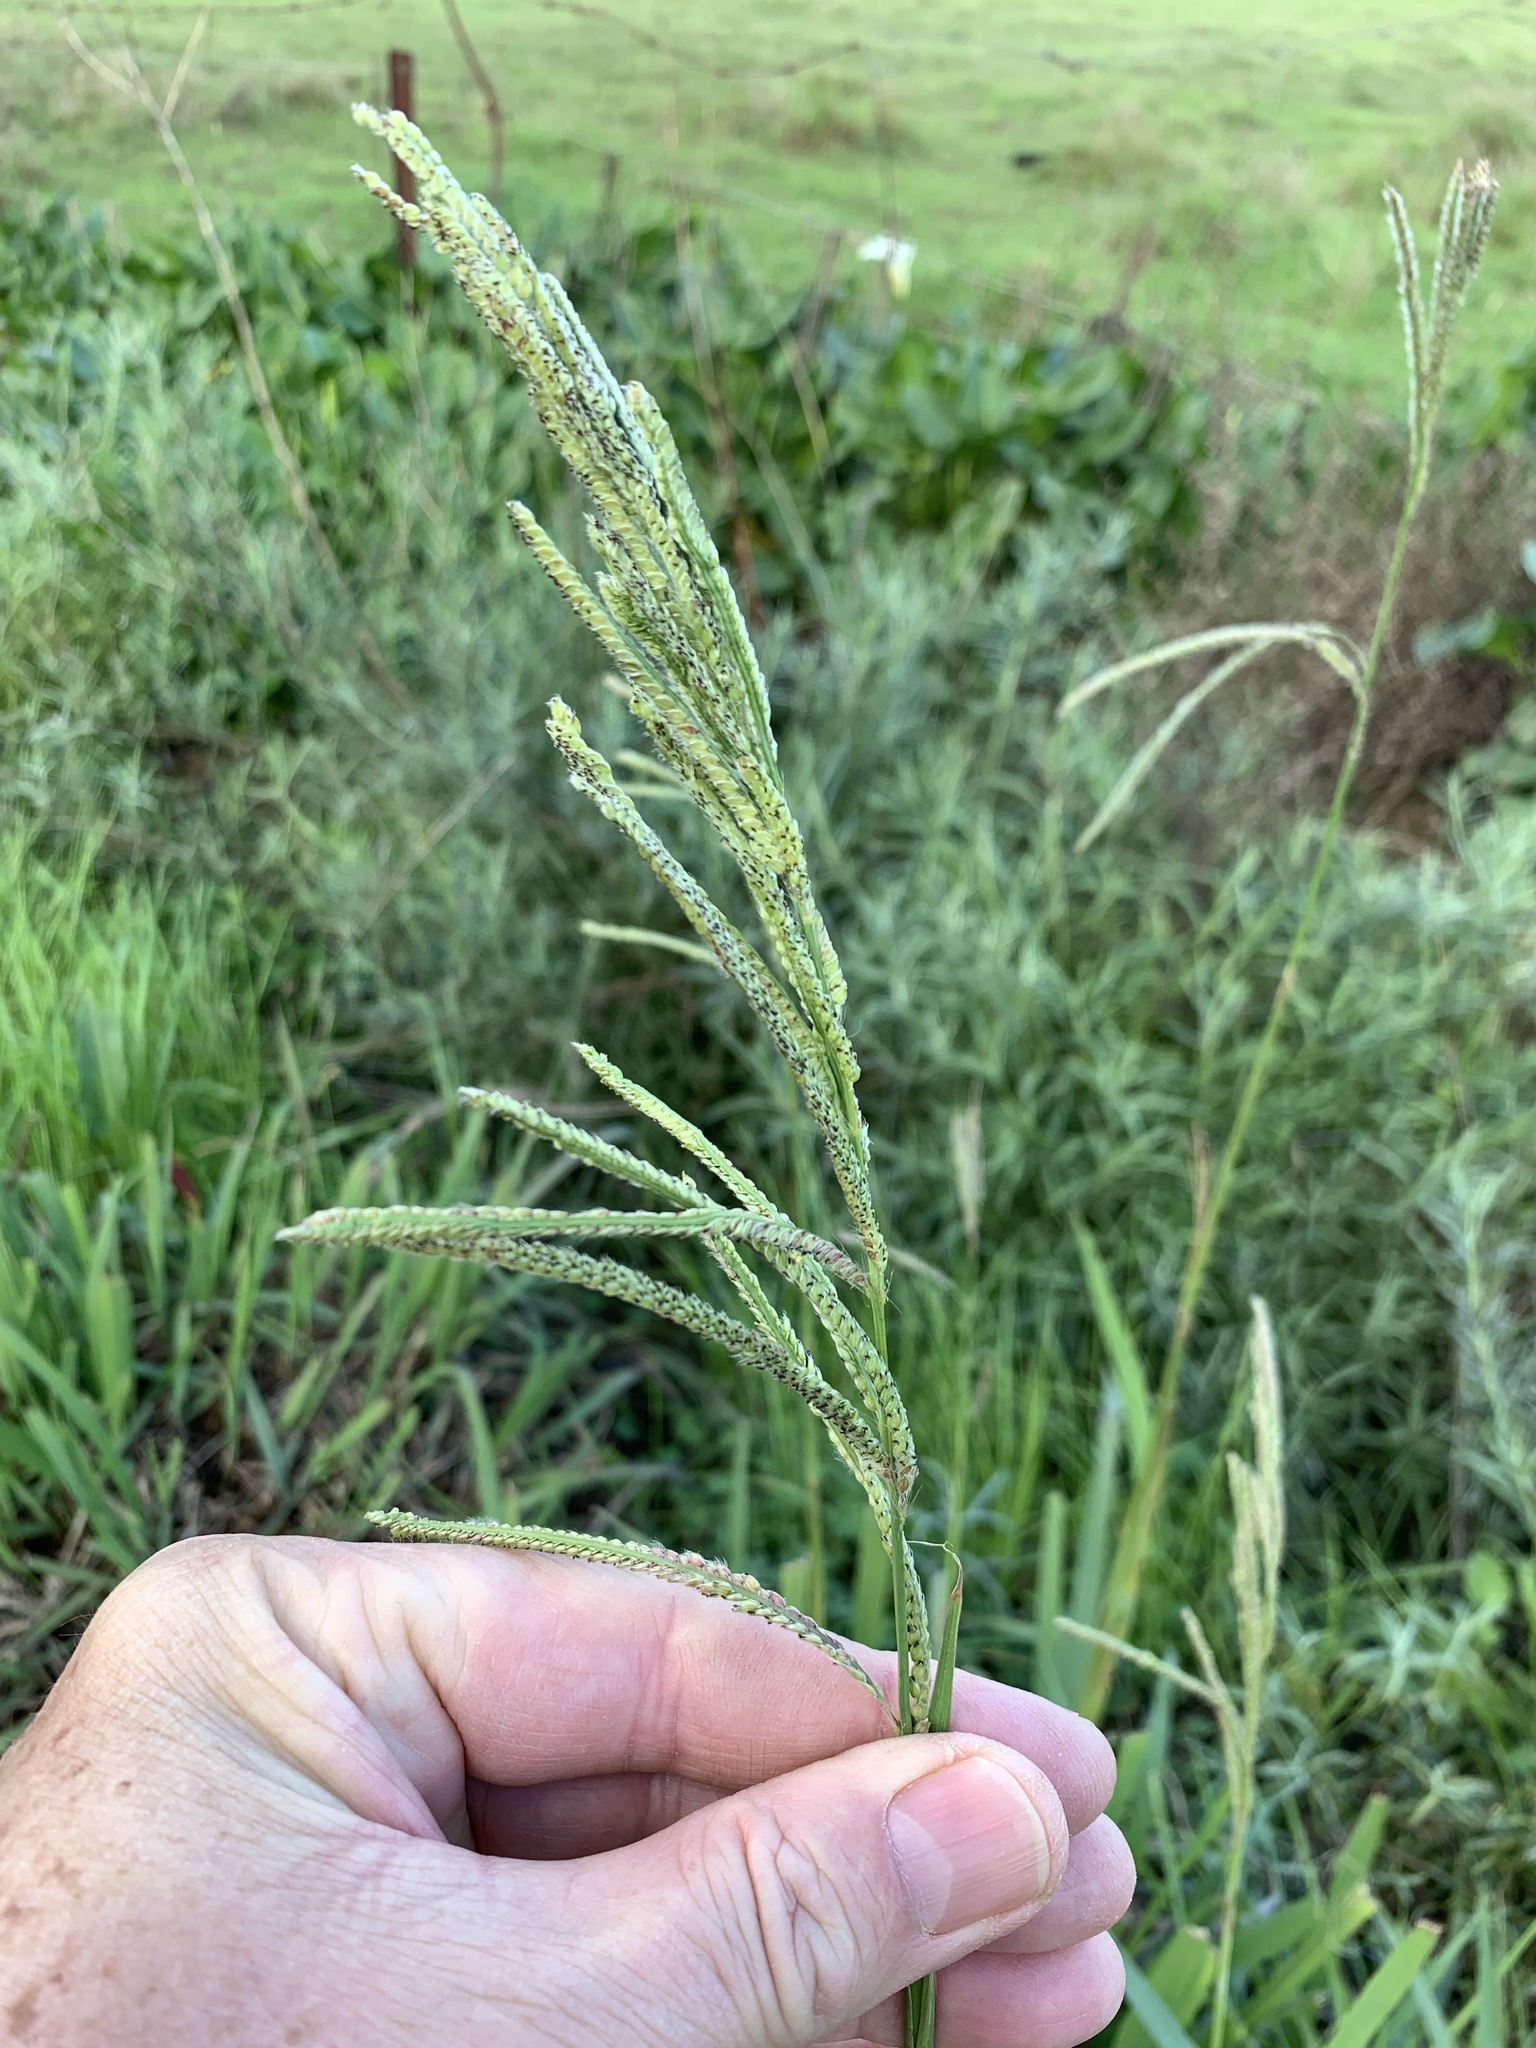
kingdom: Plantae
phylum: Tracheophyta
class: Liliopsida
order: Poales
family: Poaceae
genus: Paspalum
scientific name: Paspalum urvillei
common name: Vasey's grass
